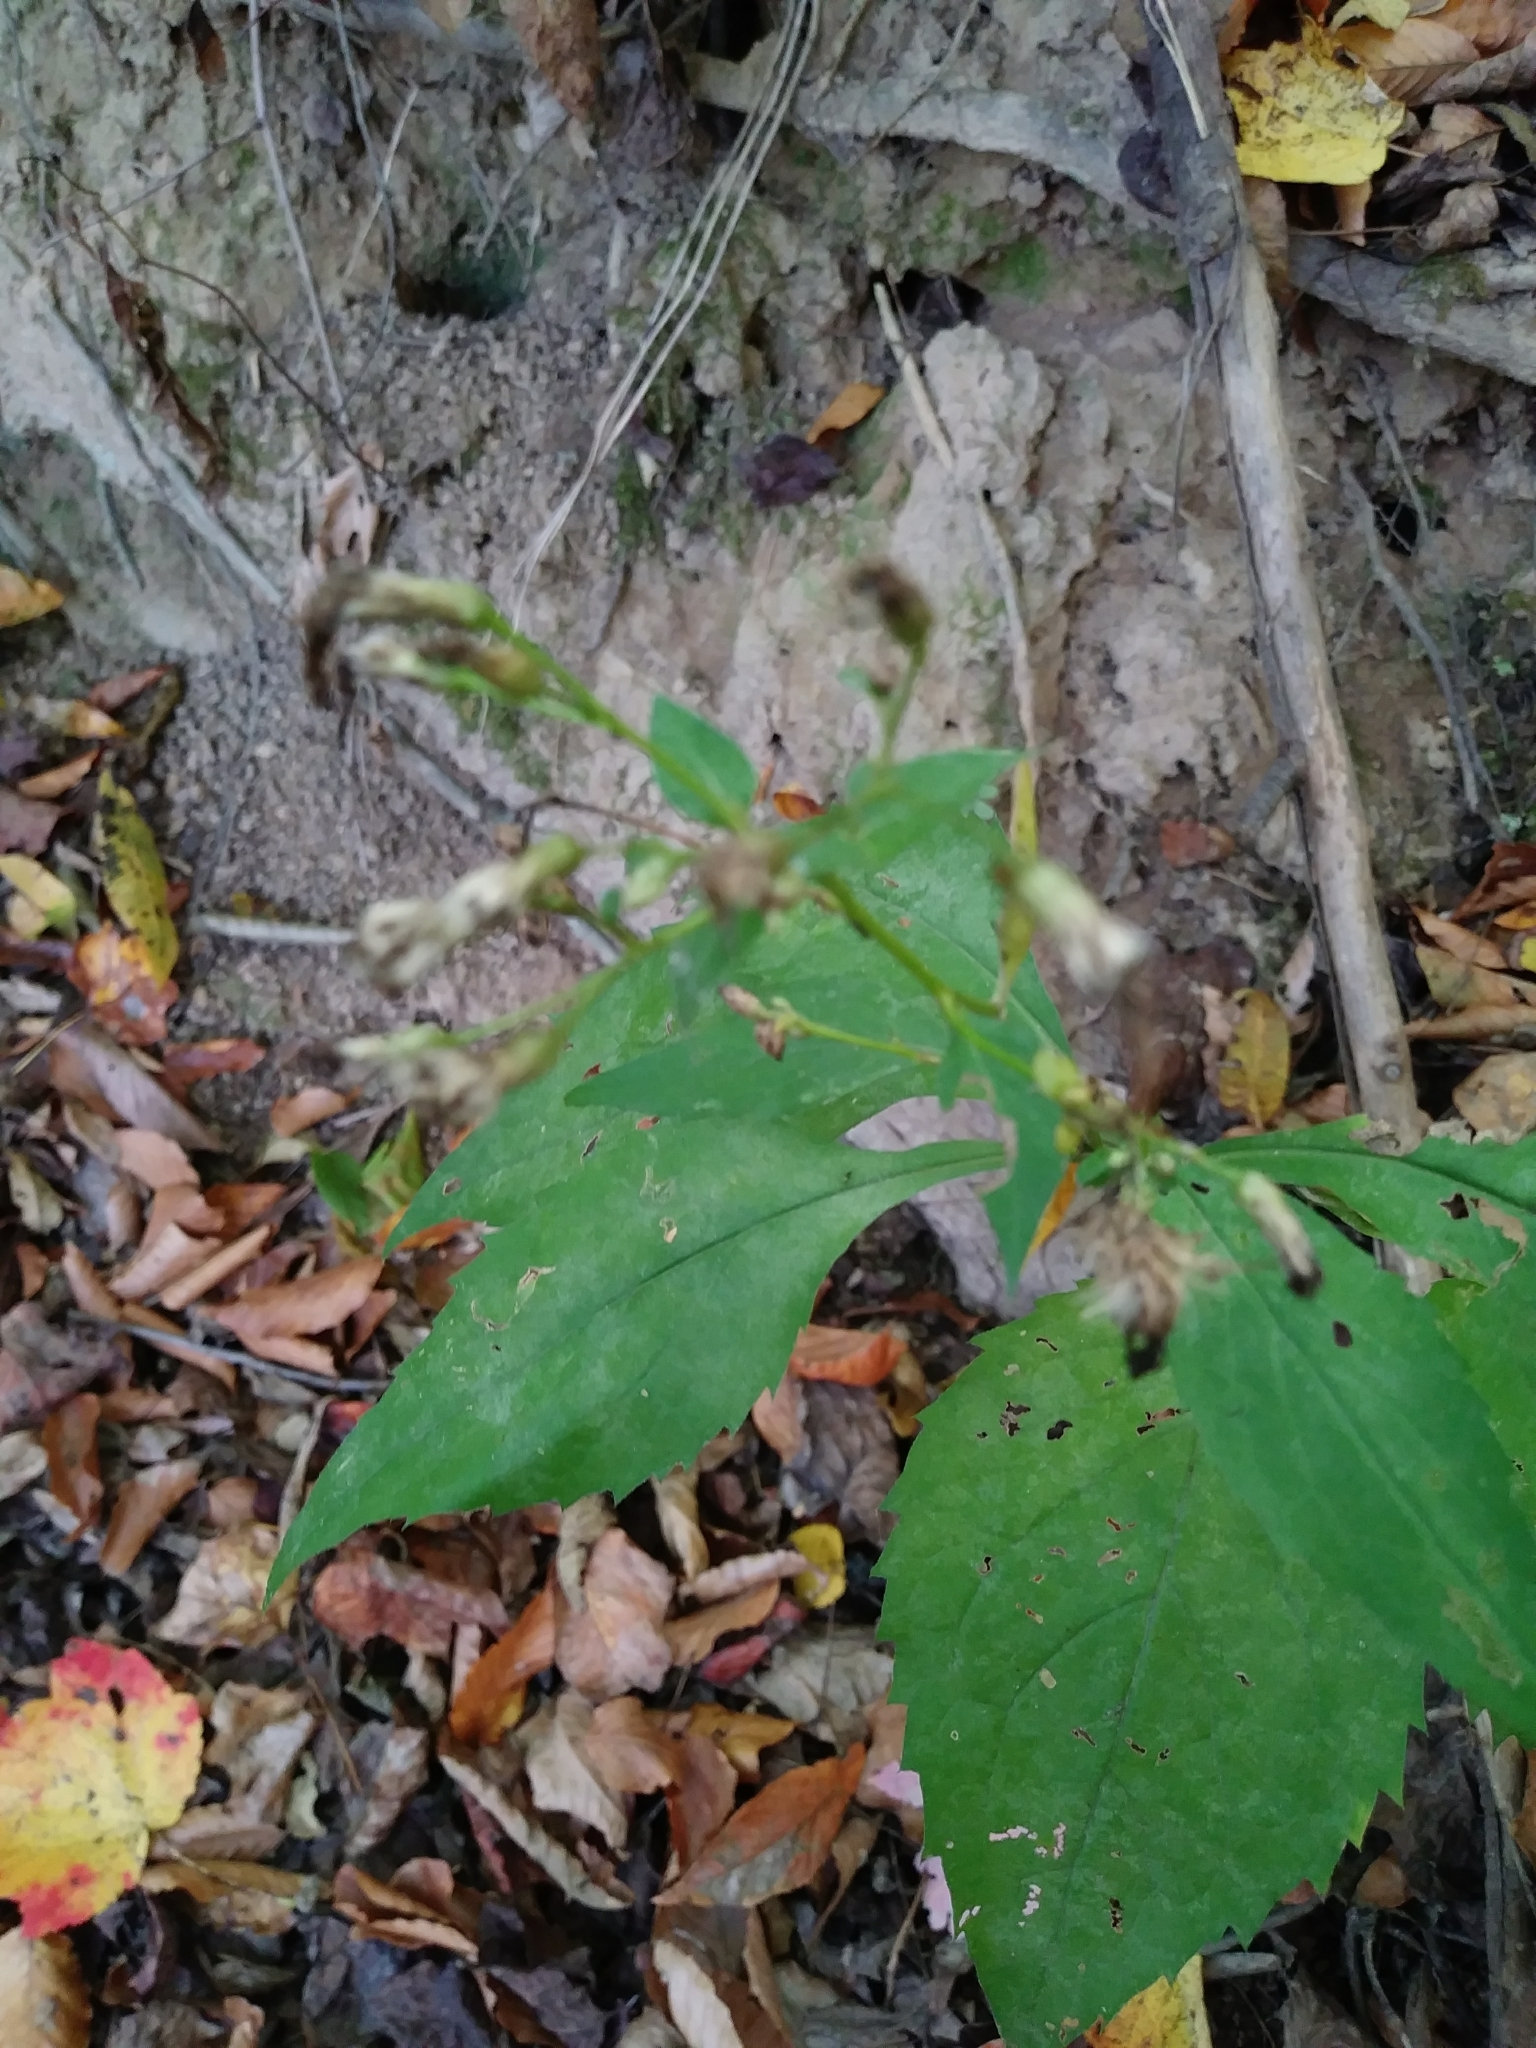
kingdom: Plantae
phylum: Tracheophyta
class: Magnoliopsida
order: Asterales
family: Asteraceae
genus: Solidago
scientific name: Solidago flexicaulis
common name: Zig-zag goldenrod
